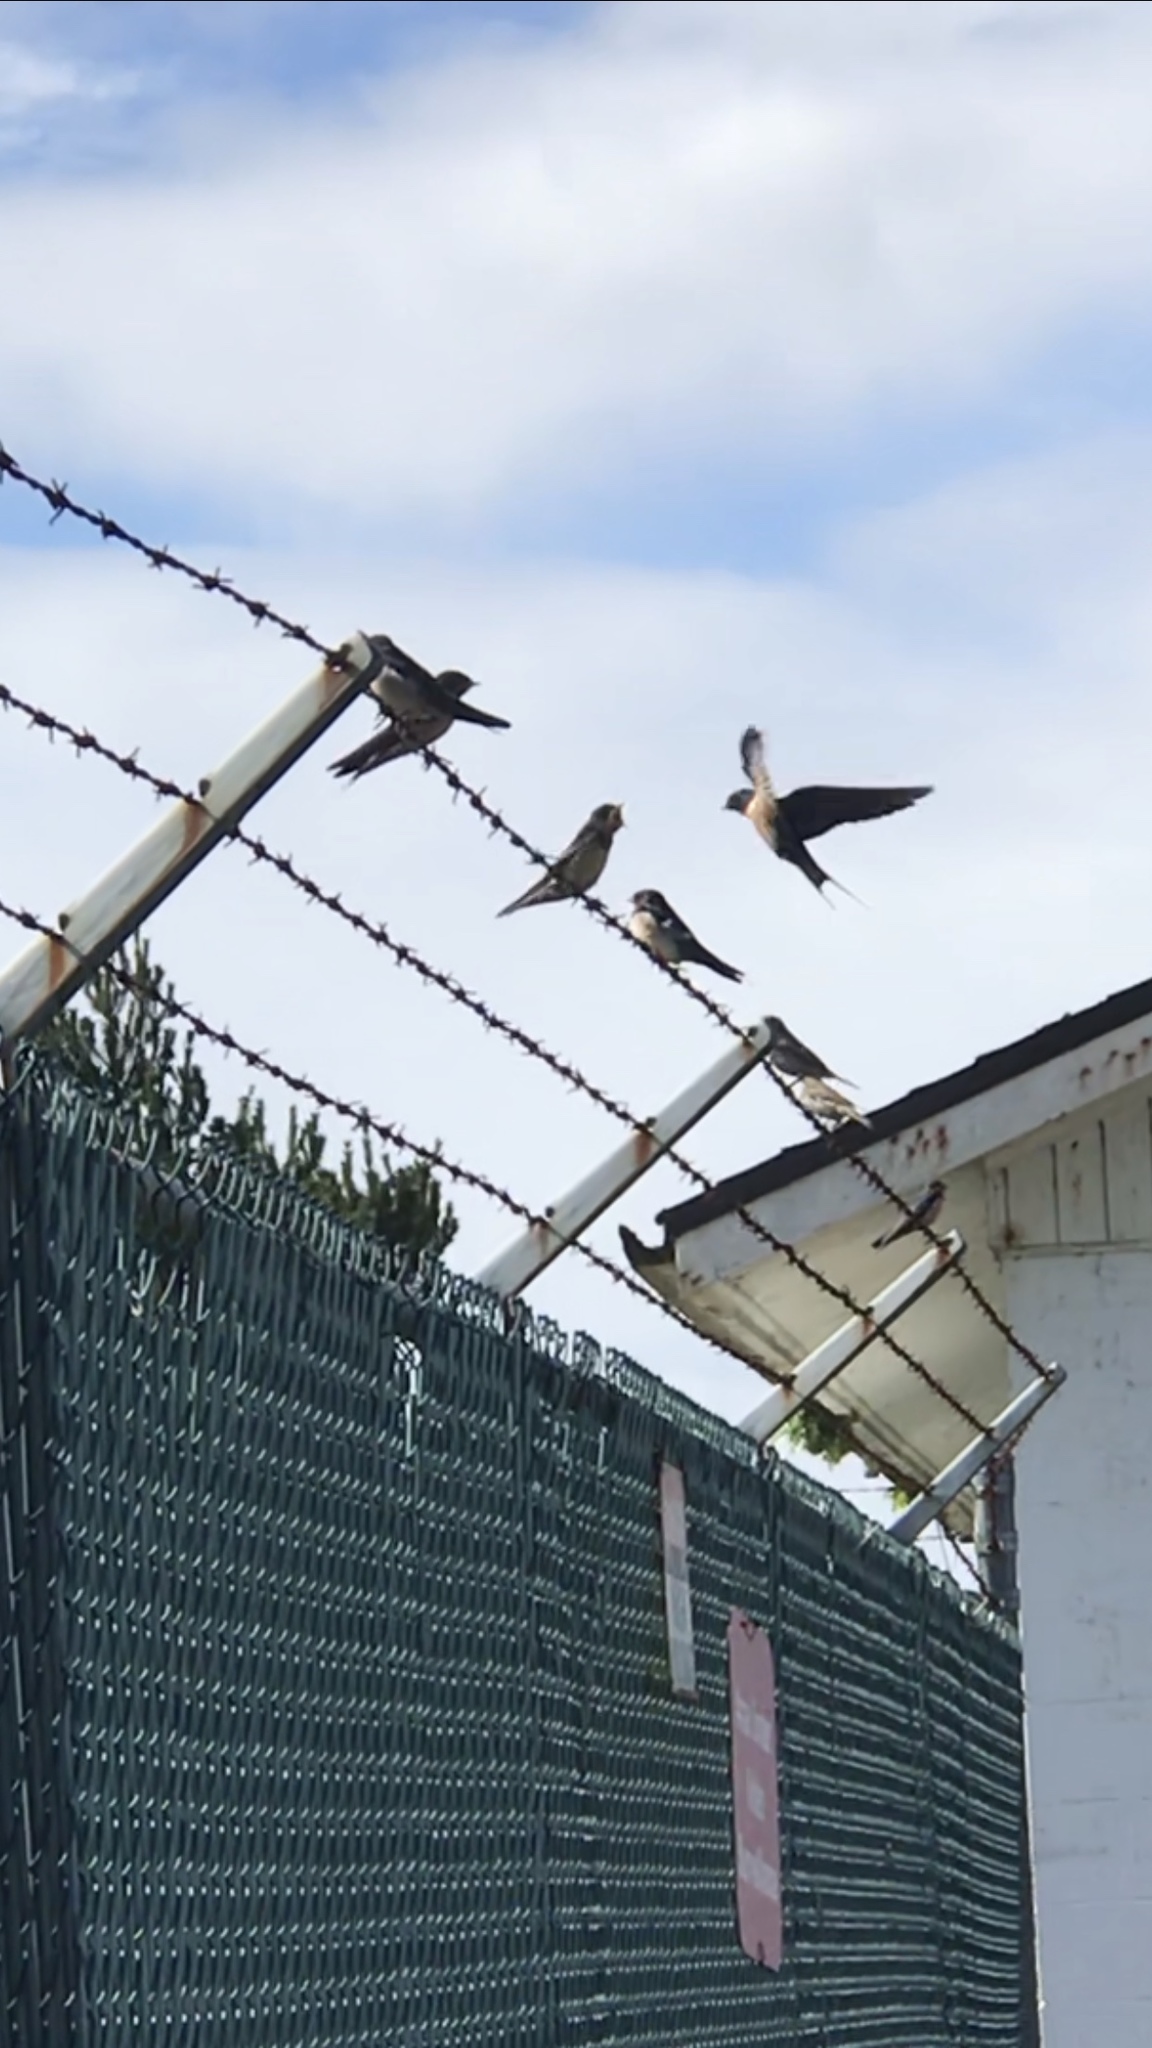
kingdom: Animalia
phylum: Chordata
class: Aves
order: Passeriformes
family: Hirundinidae
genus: Hirundo
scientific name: Hirundo rustica
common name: Barn swallow
